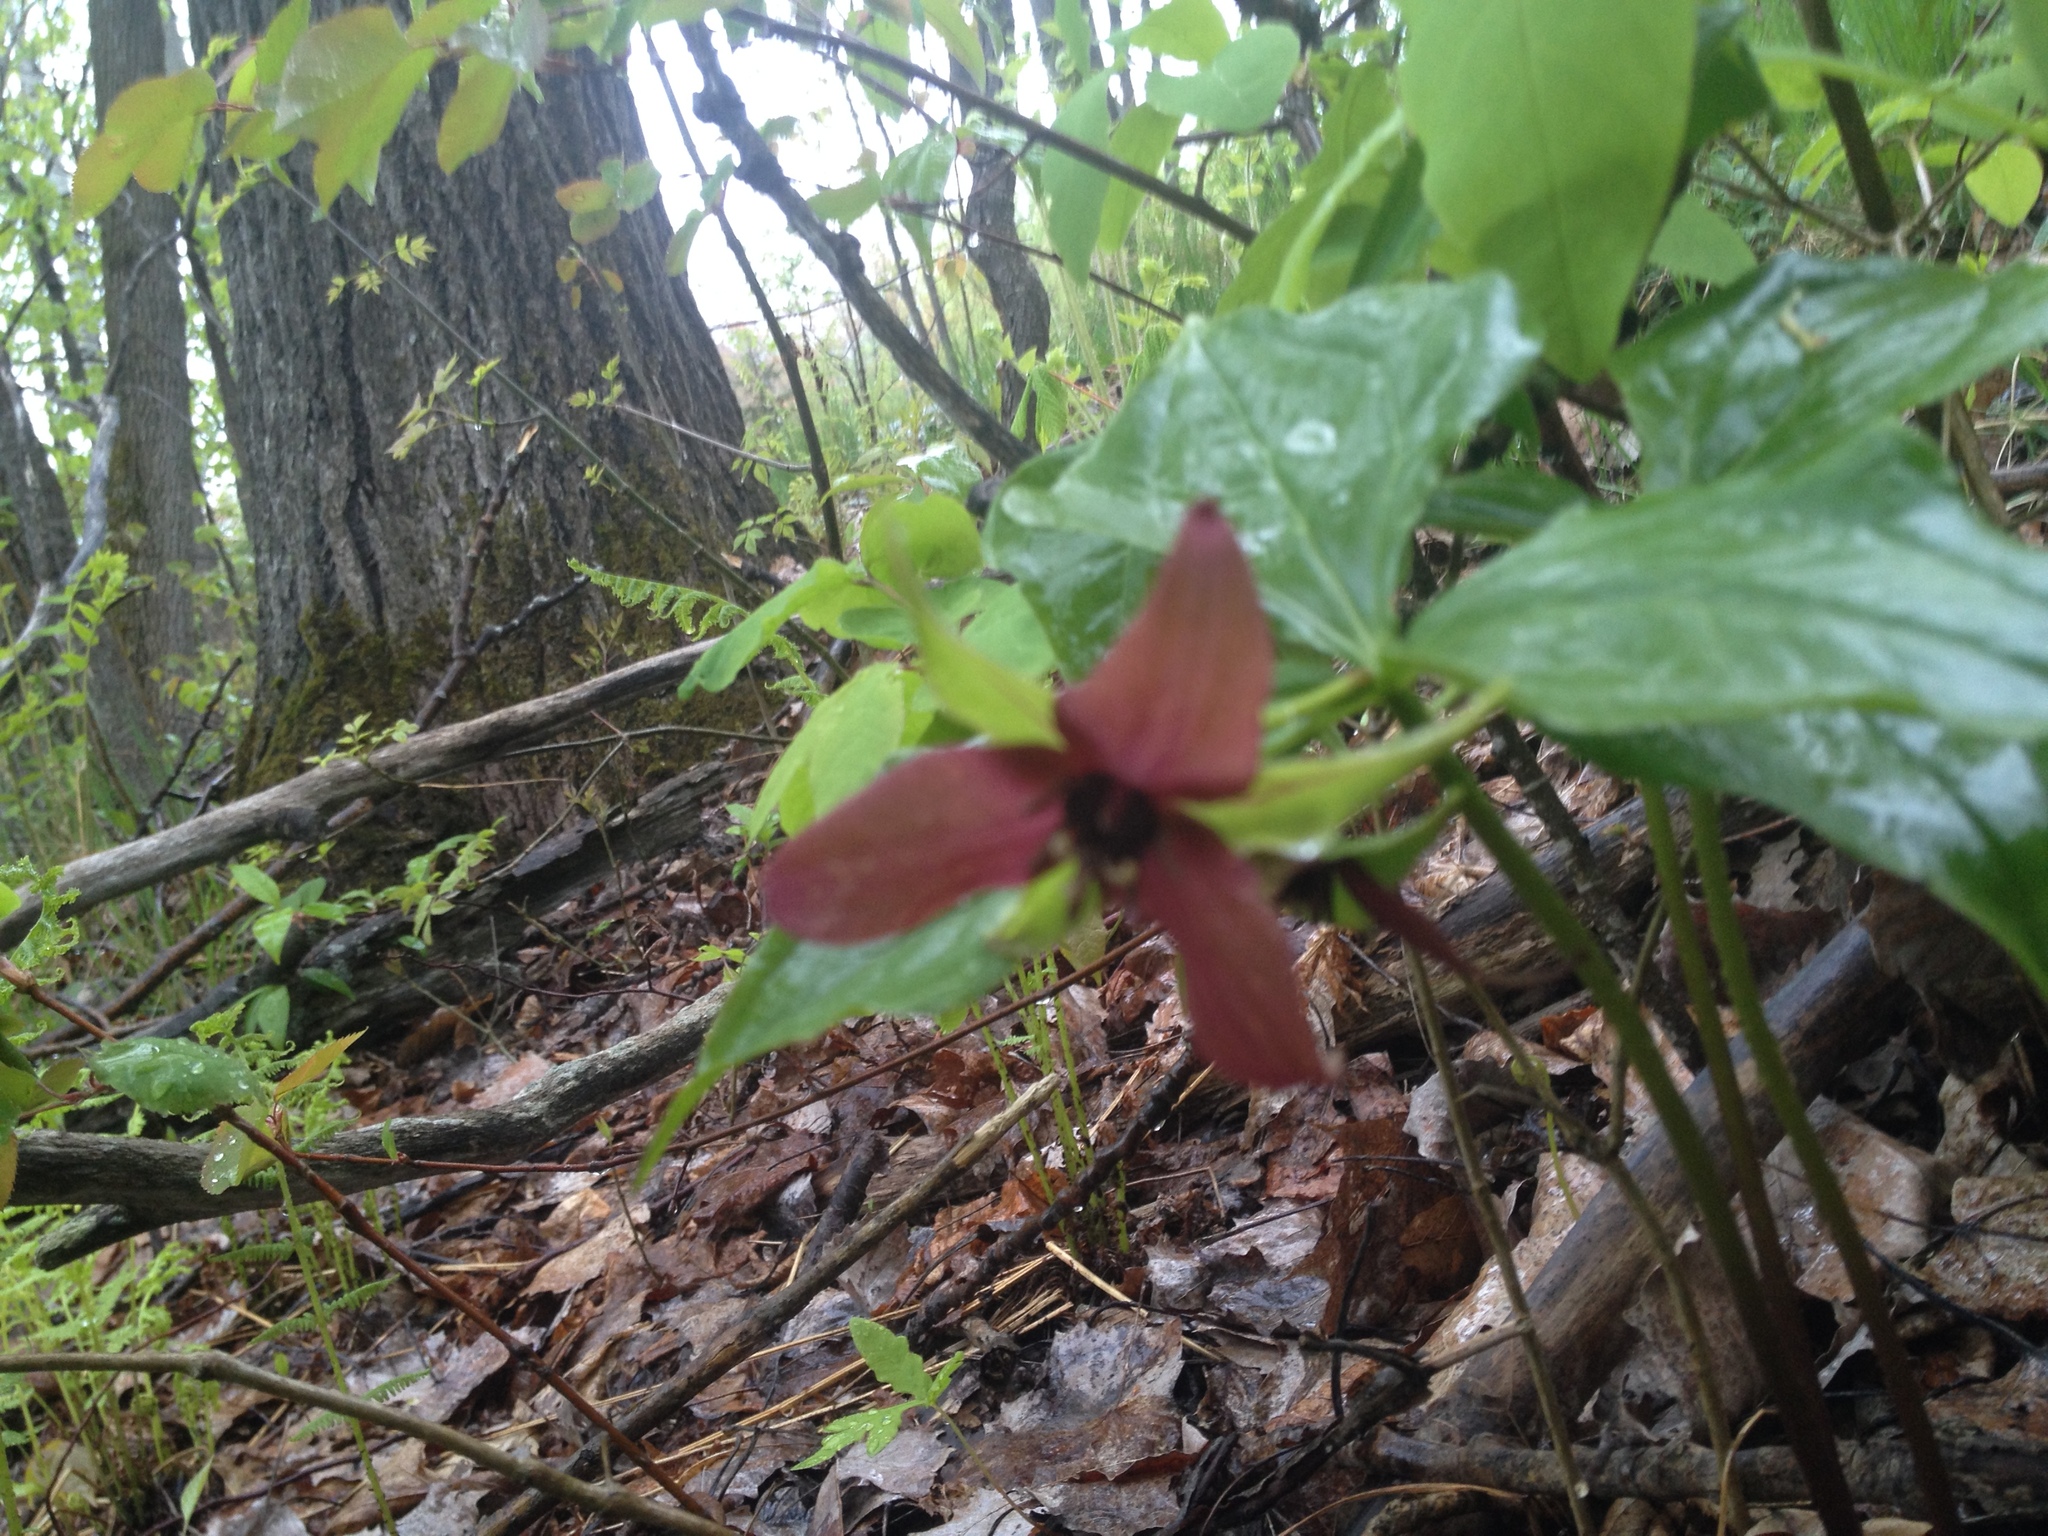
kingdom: Plantae
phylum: Tracheophyta
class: Liliopsida
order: Liliales
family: Melanthiaceae
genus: Trillium
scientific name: Trillium erectum
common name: Purple trillium
